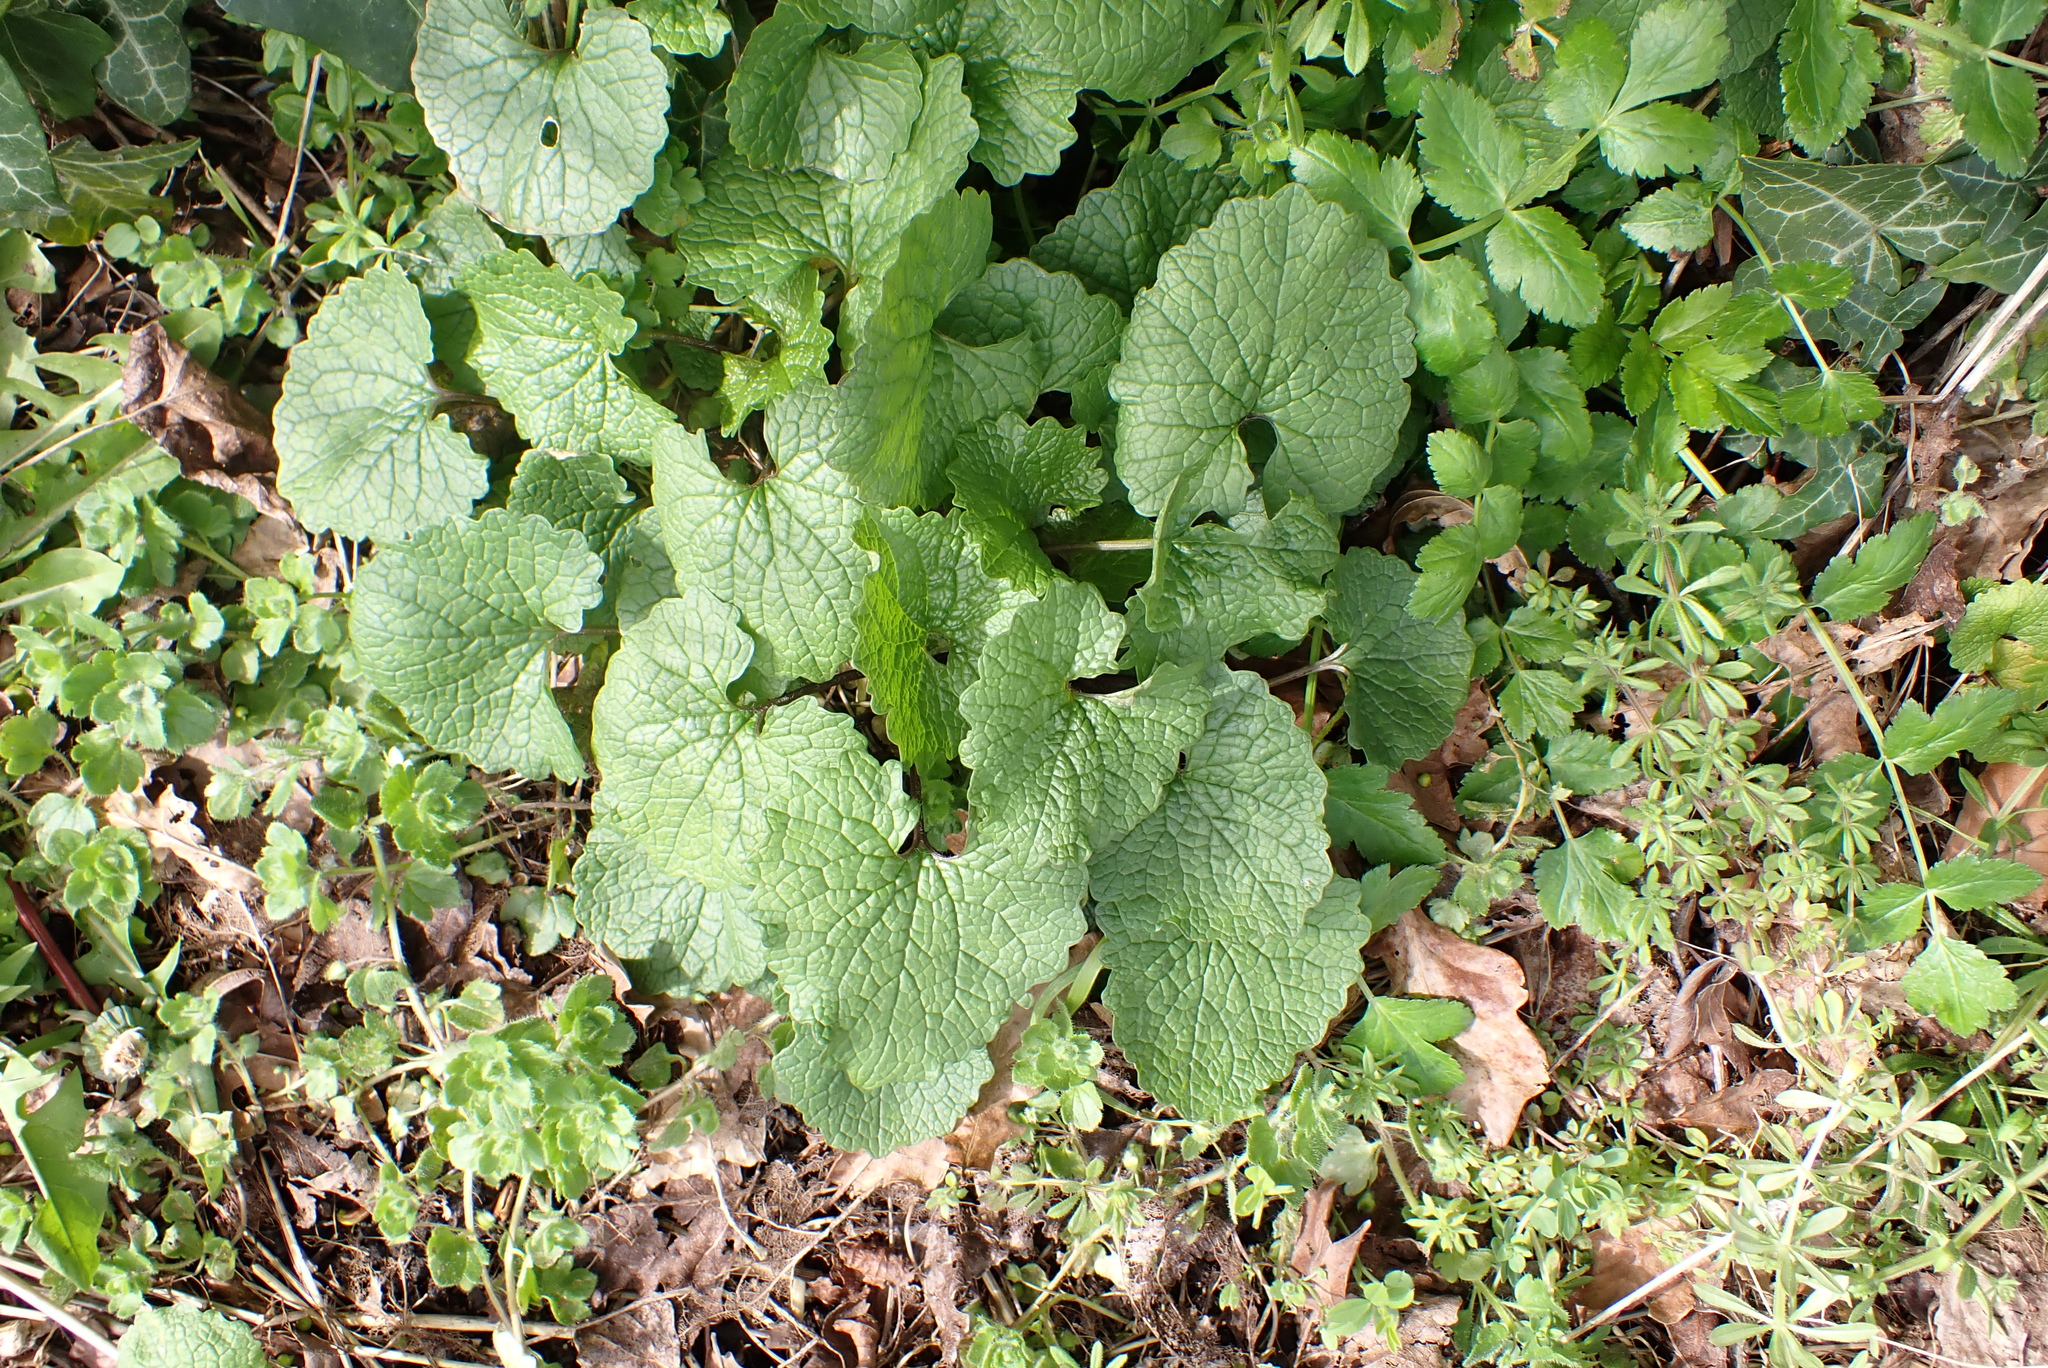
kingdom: Plantae
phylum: Tracheophyta
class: Magnoliopsida
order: Brassicales
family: Brassicaceae
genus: Alliaria
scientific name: Alliaria petiolata
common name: Garlic mustard
